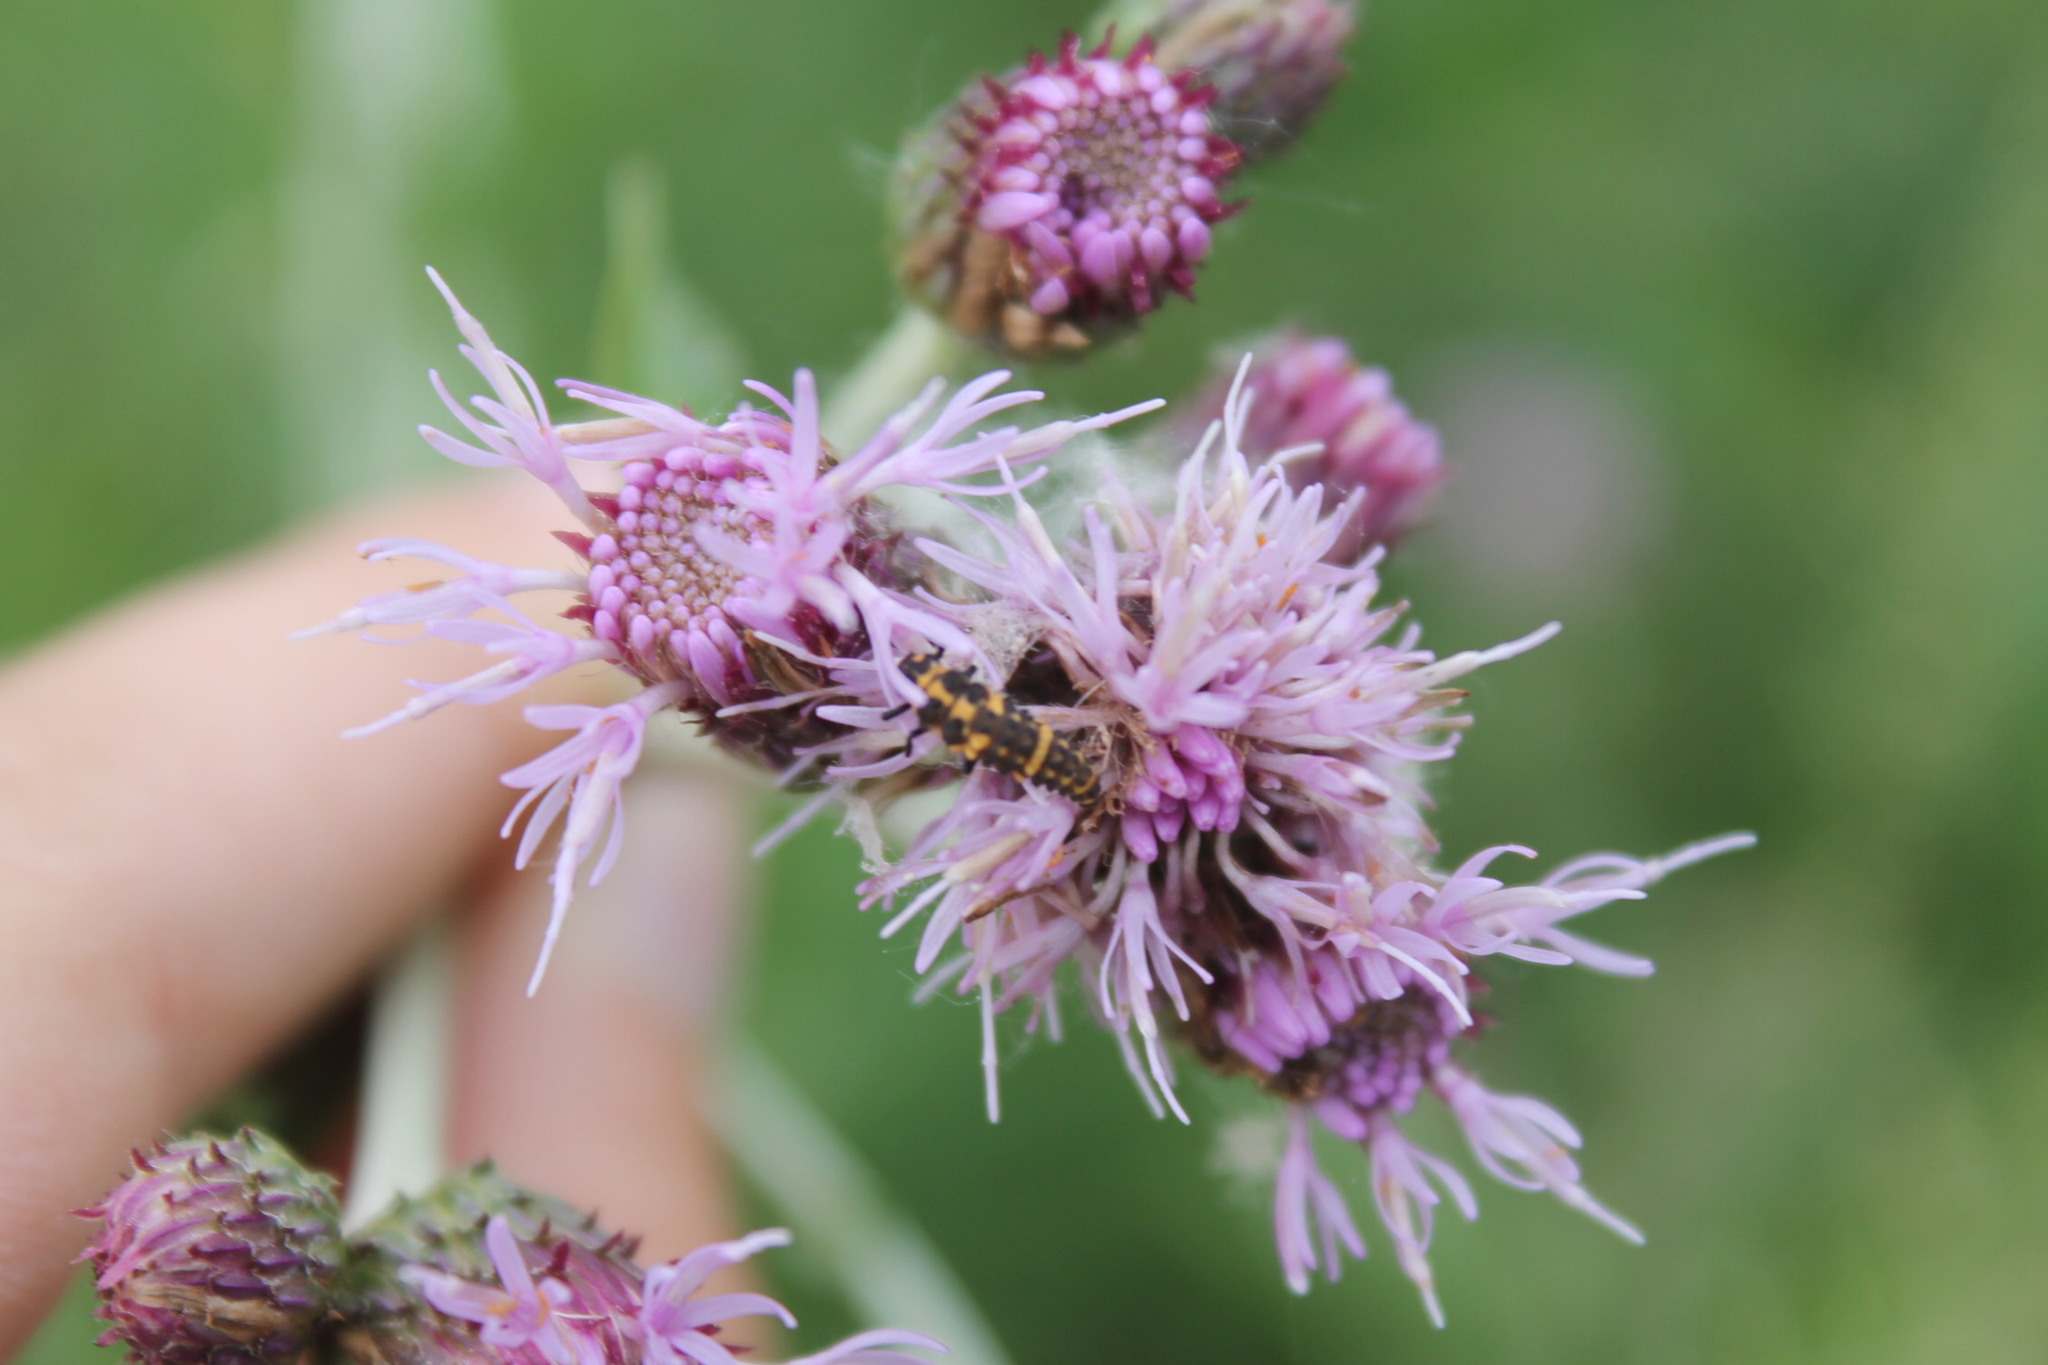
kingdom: Animalia
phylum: Arthropoda
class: Insecta
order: Coleoptera
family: Coccinellidae
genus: Coccinella
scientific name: Coccinella septempunctata
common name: Sevenspotted lady beetle
